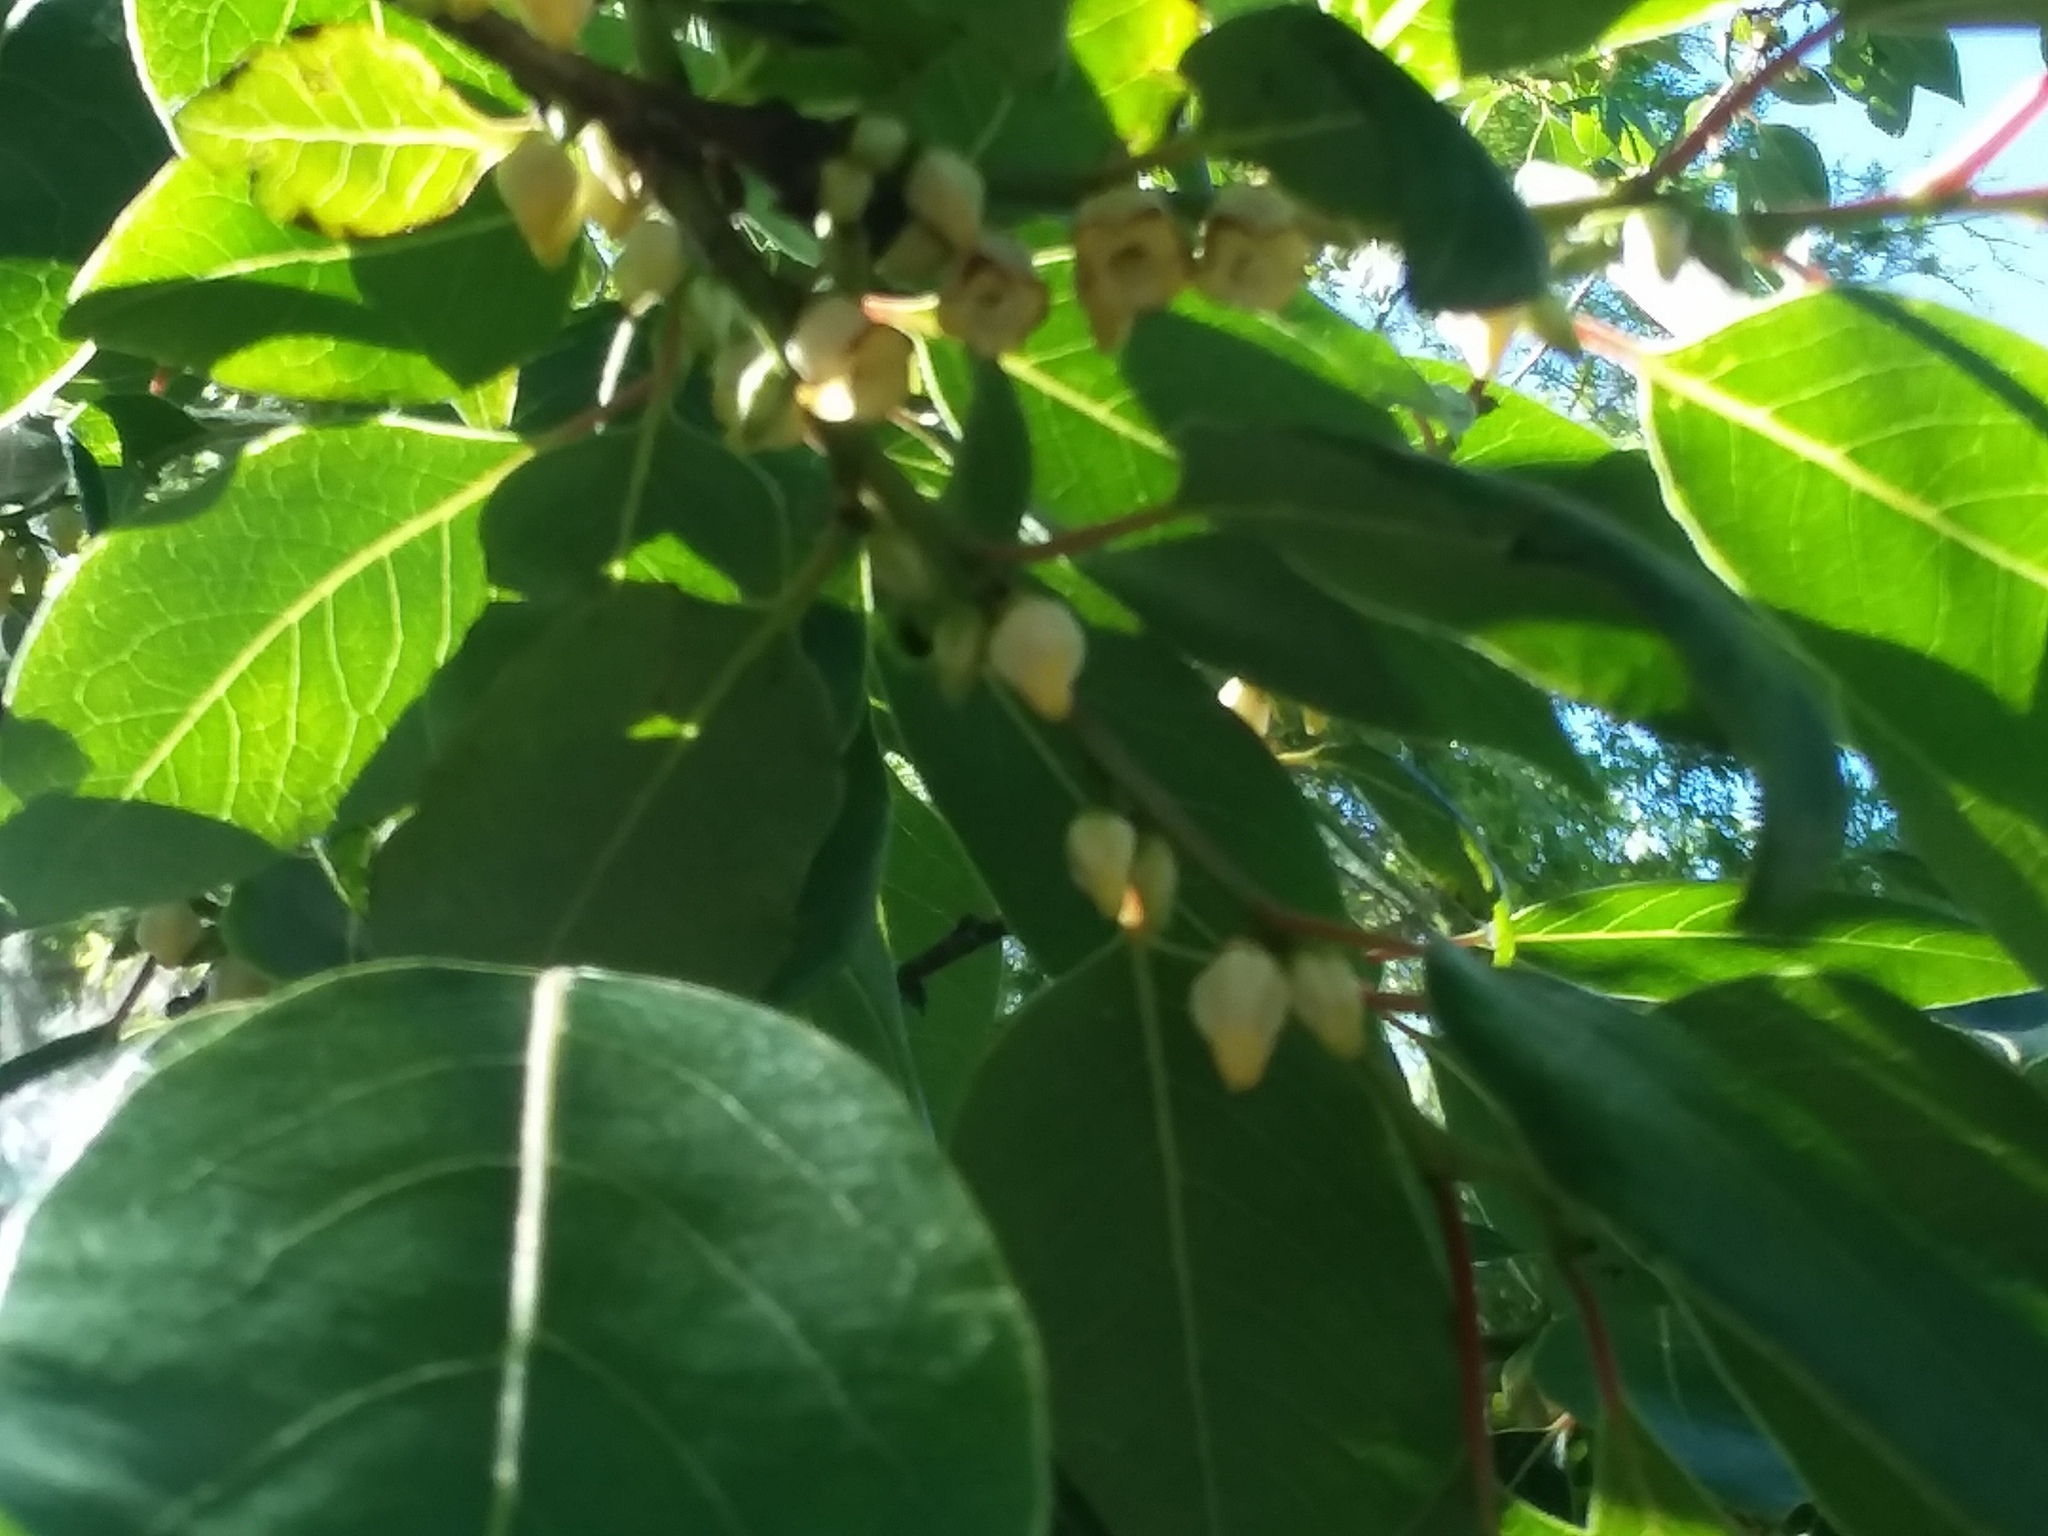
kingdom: Plantae
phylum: Tracheophyta
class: Magnoliopsida
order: Ericales
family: Ebenaceae
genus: Diospyros
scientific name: Diospyros virginiana
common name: Persimmon
